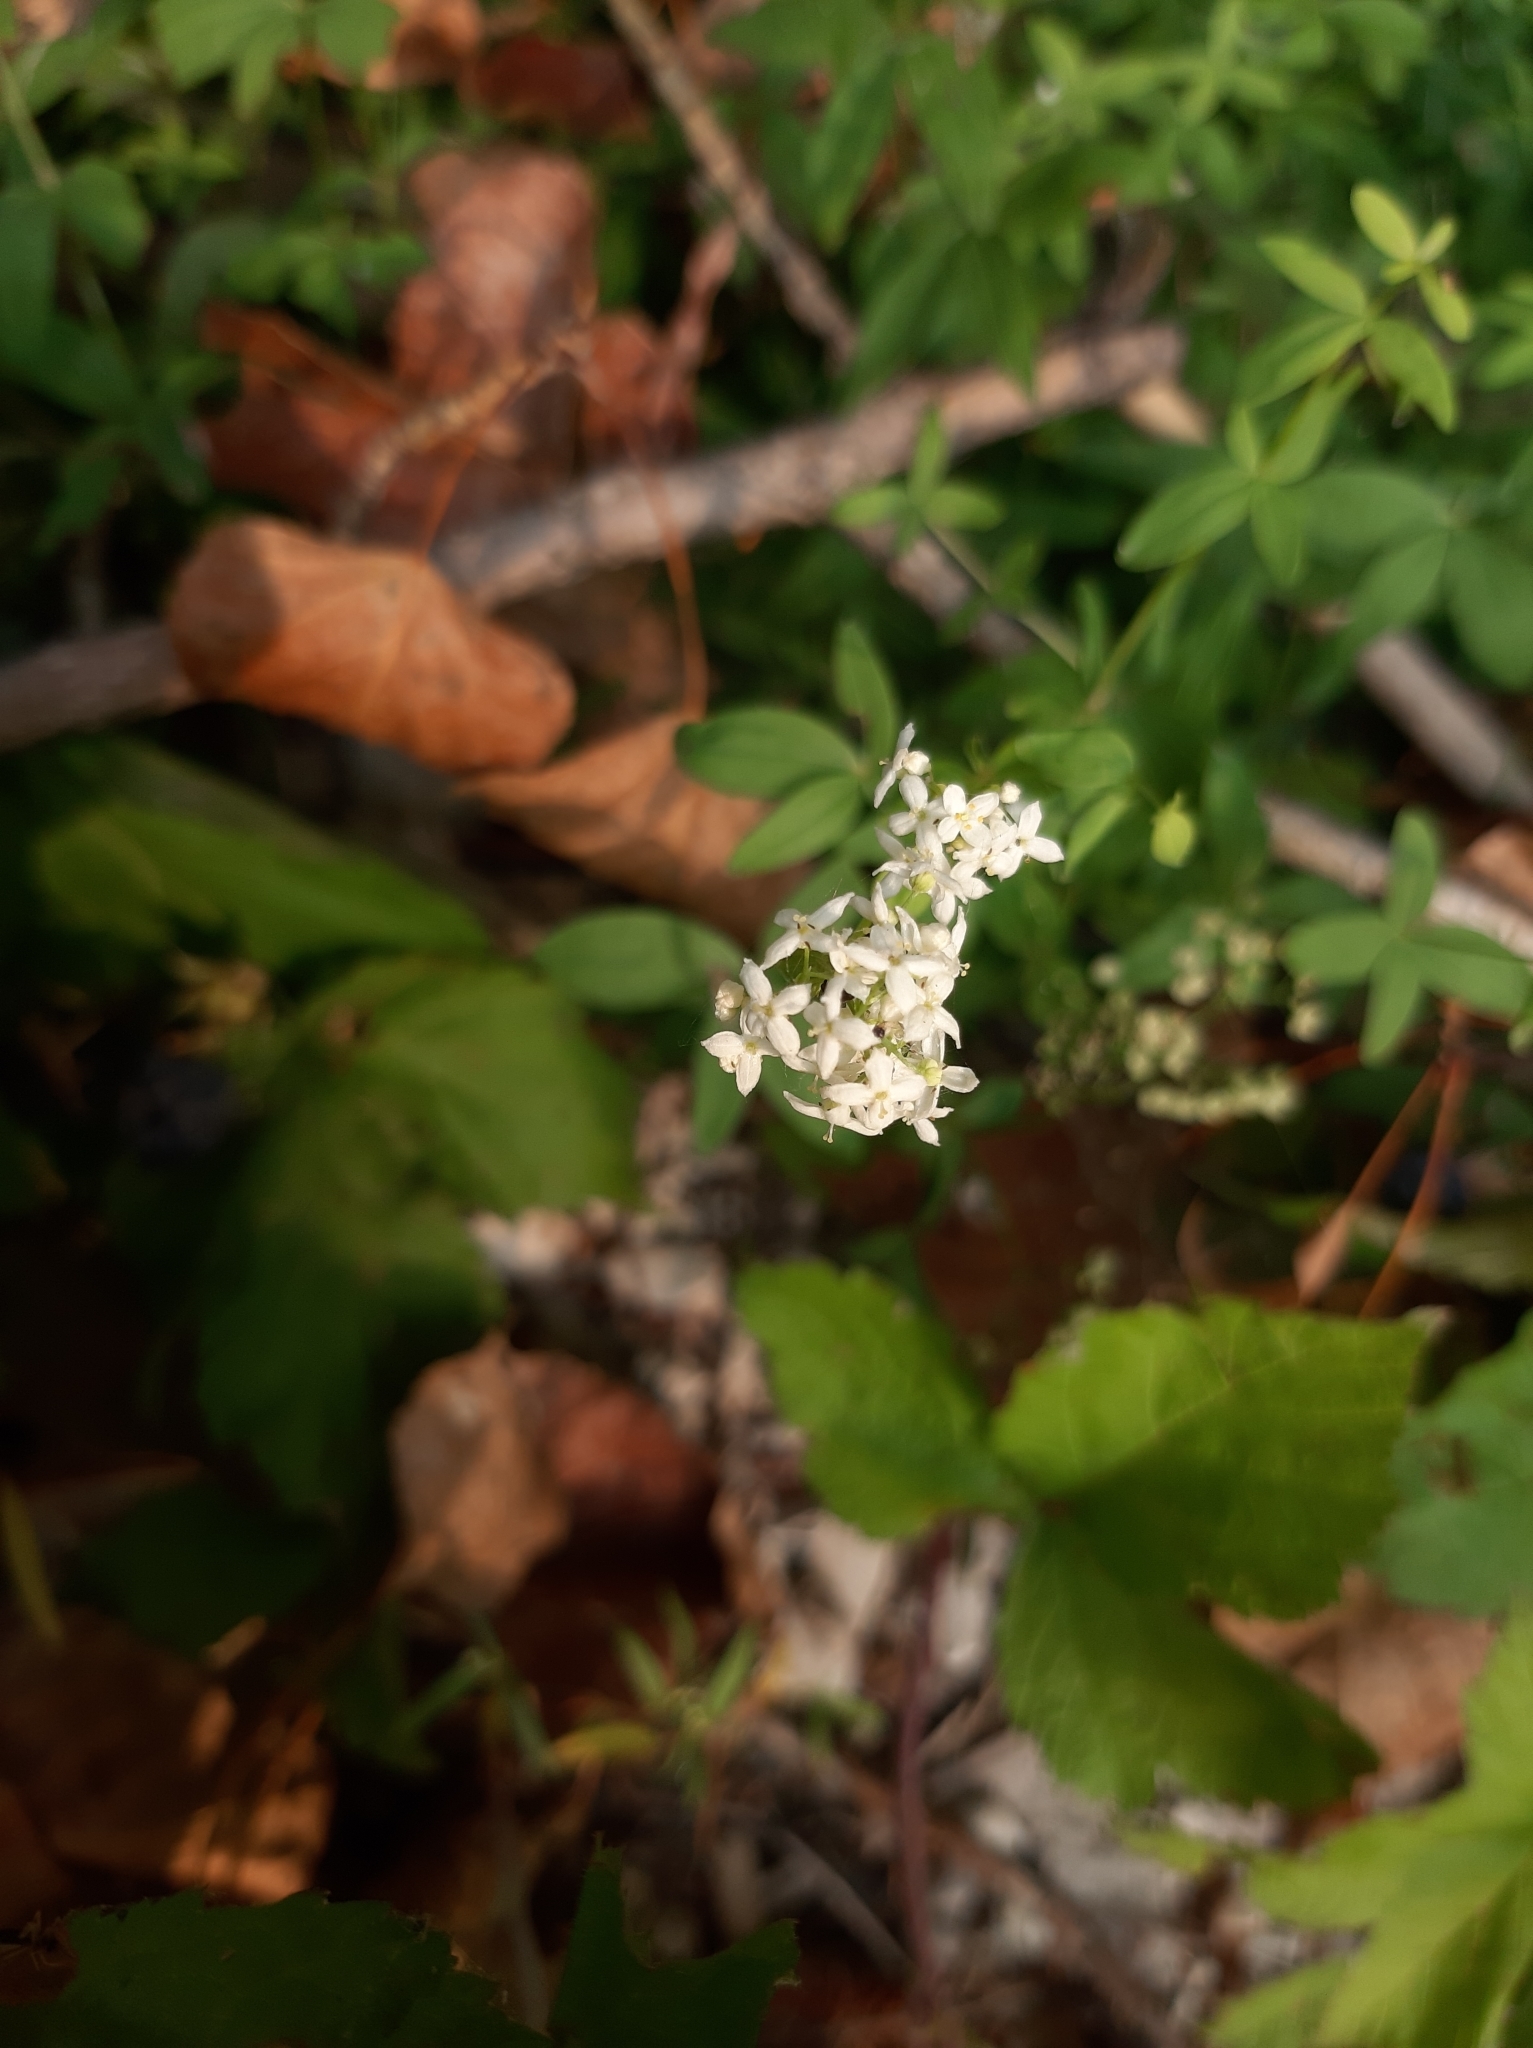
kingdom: Plantae
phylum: Tracheophyta
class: Magnoliopsida
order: Gentianales
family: Rubiaceae
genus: Galium
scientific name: Galium rubioides
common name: European bedstraw
